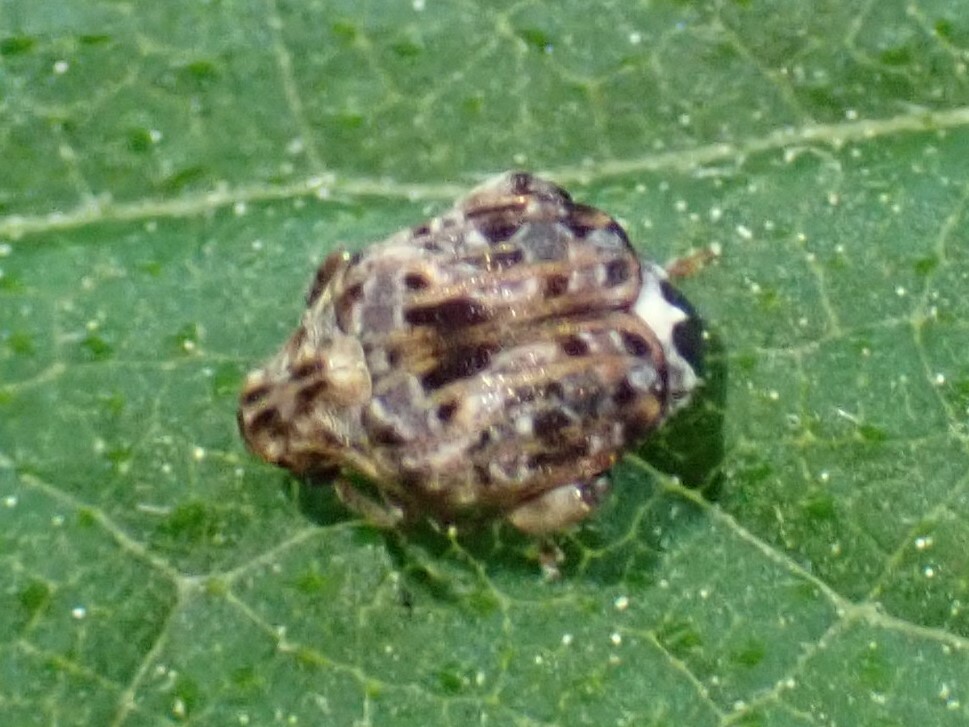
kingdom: Animalia
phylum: Arthropoda
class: Insecta
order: Coleoptera
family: Chrysomelidae
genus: Gibbobruchus
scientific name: Gibbobruchus mimus
